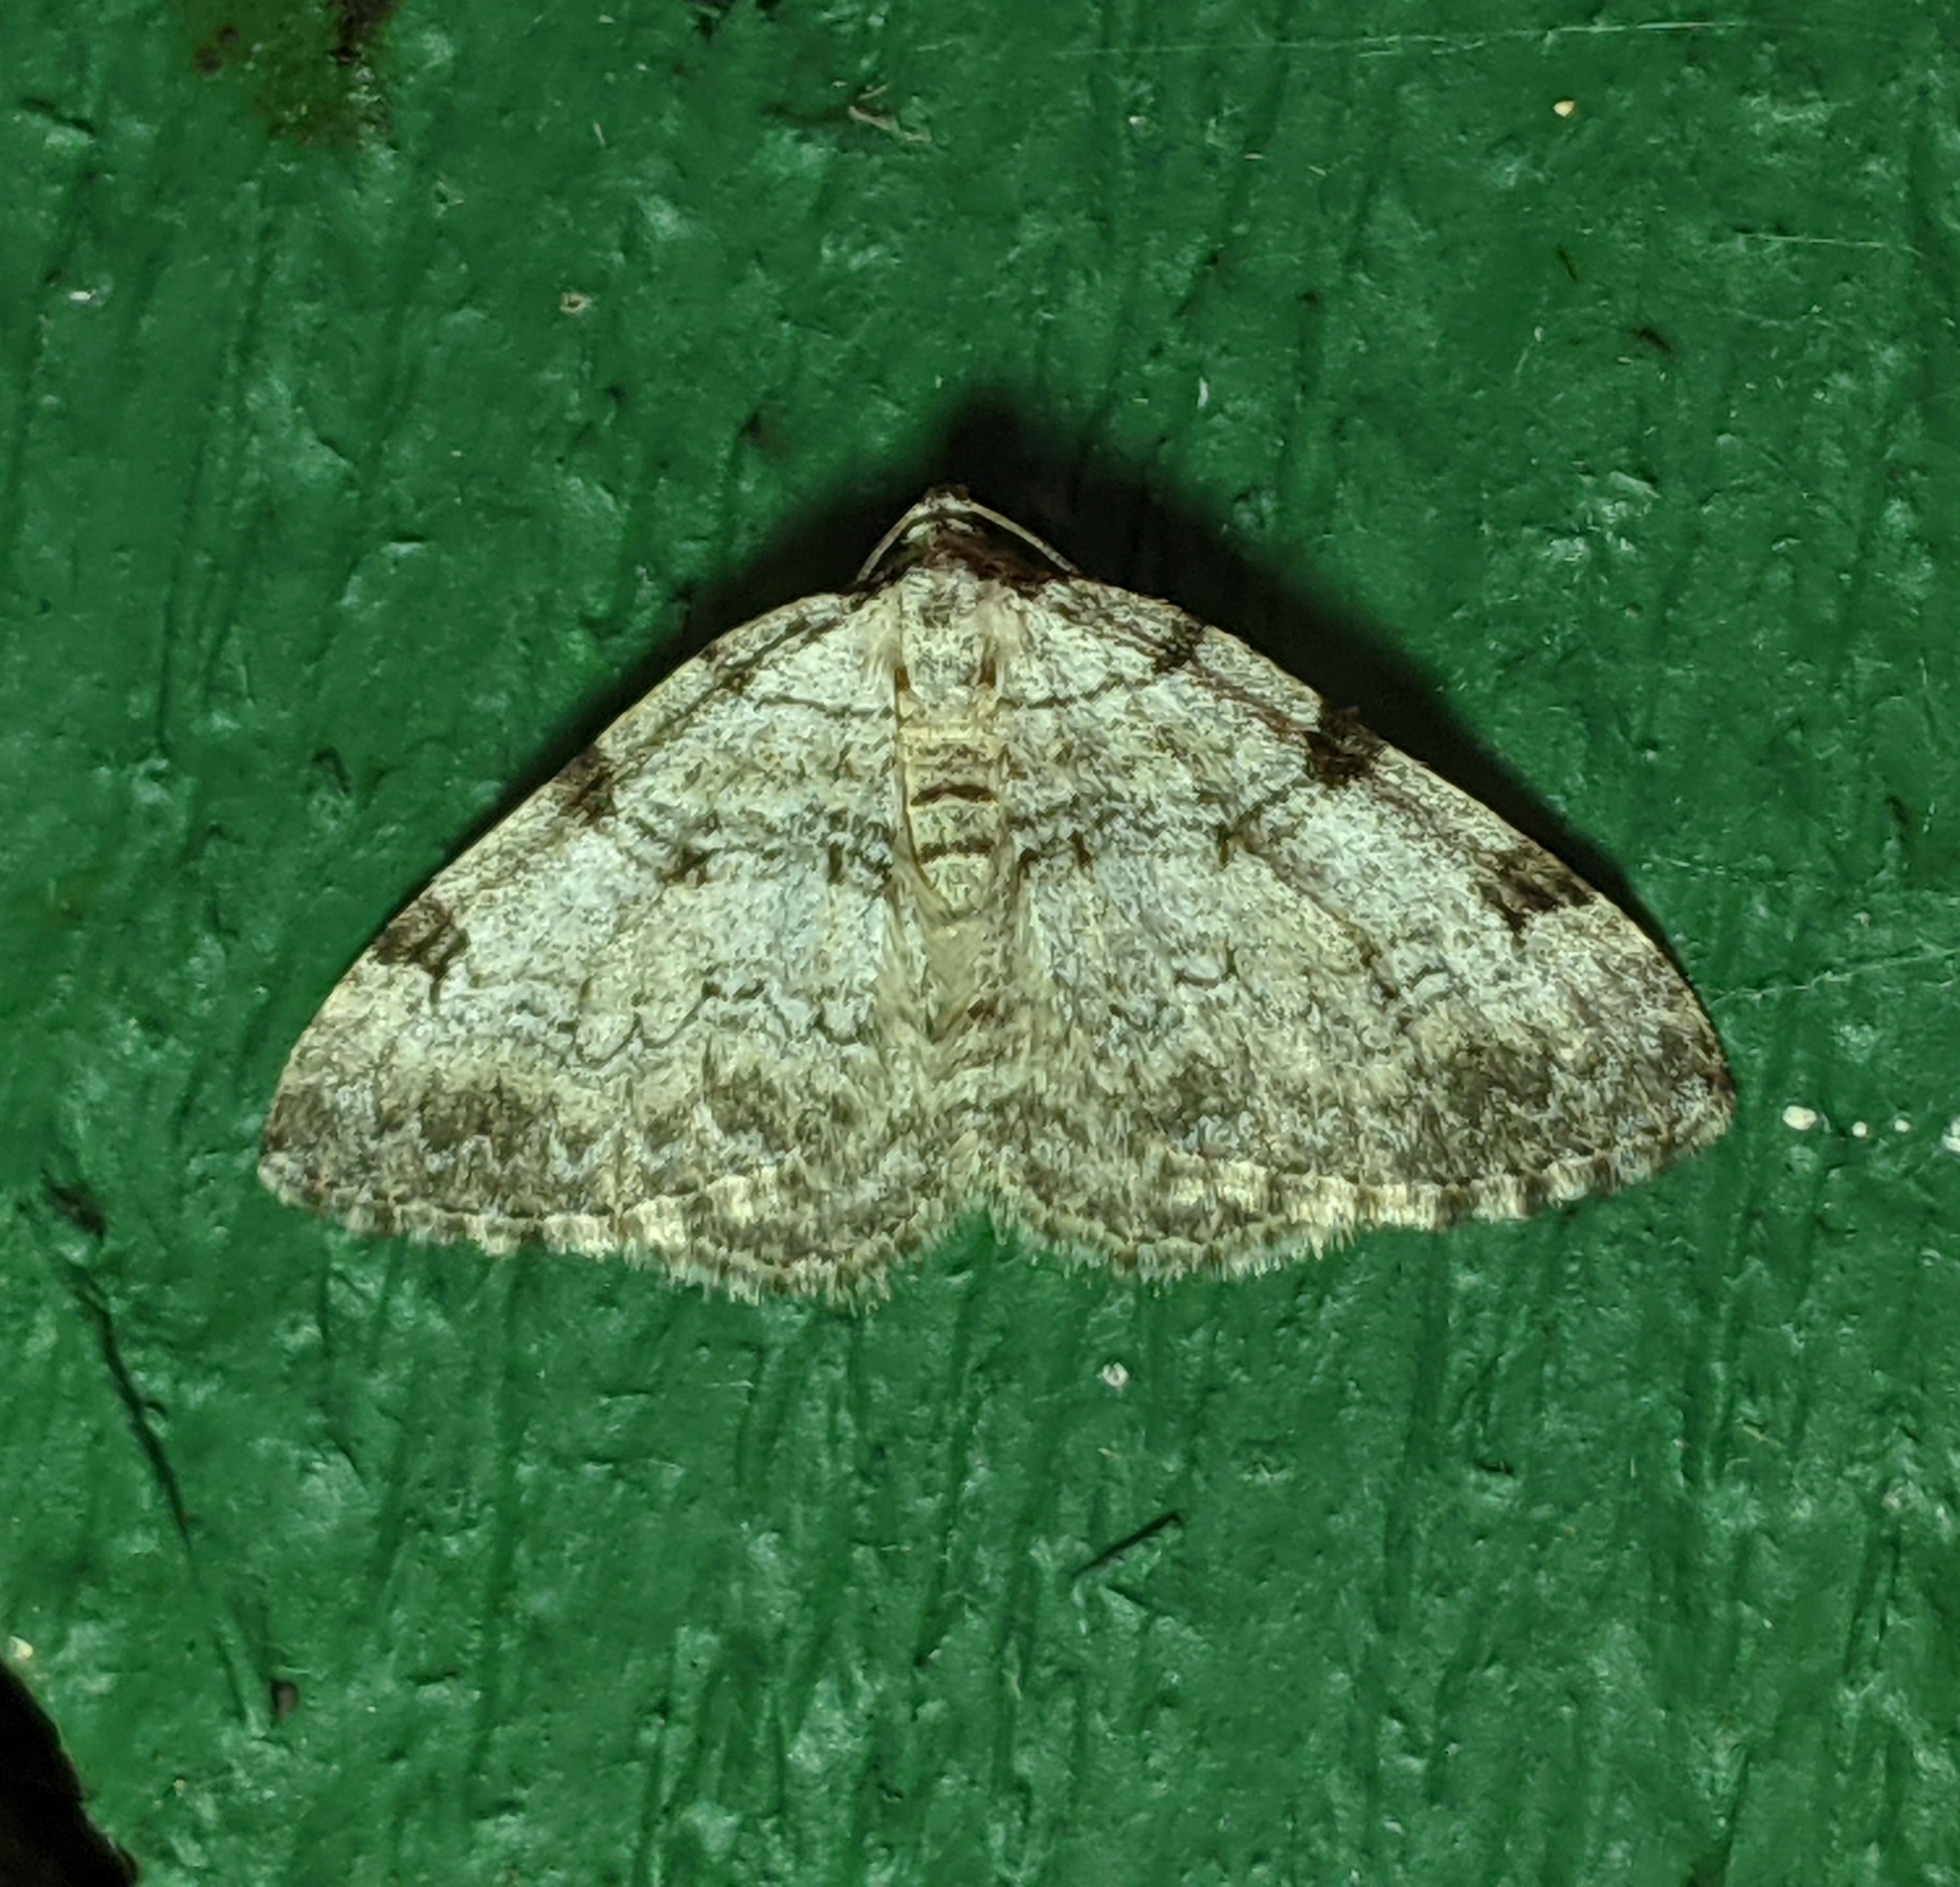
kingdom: Animalia
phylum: Arthropoda
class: Insecta
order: Lepidoptera
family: Geometridae
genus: Perizoma
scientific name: Perizoma costiguttata
